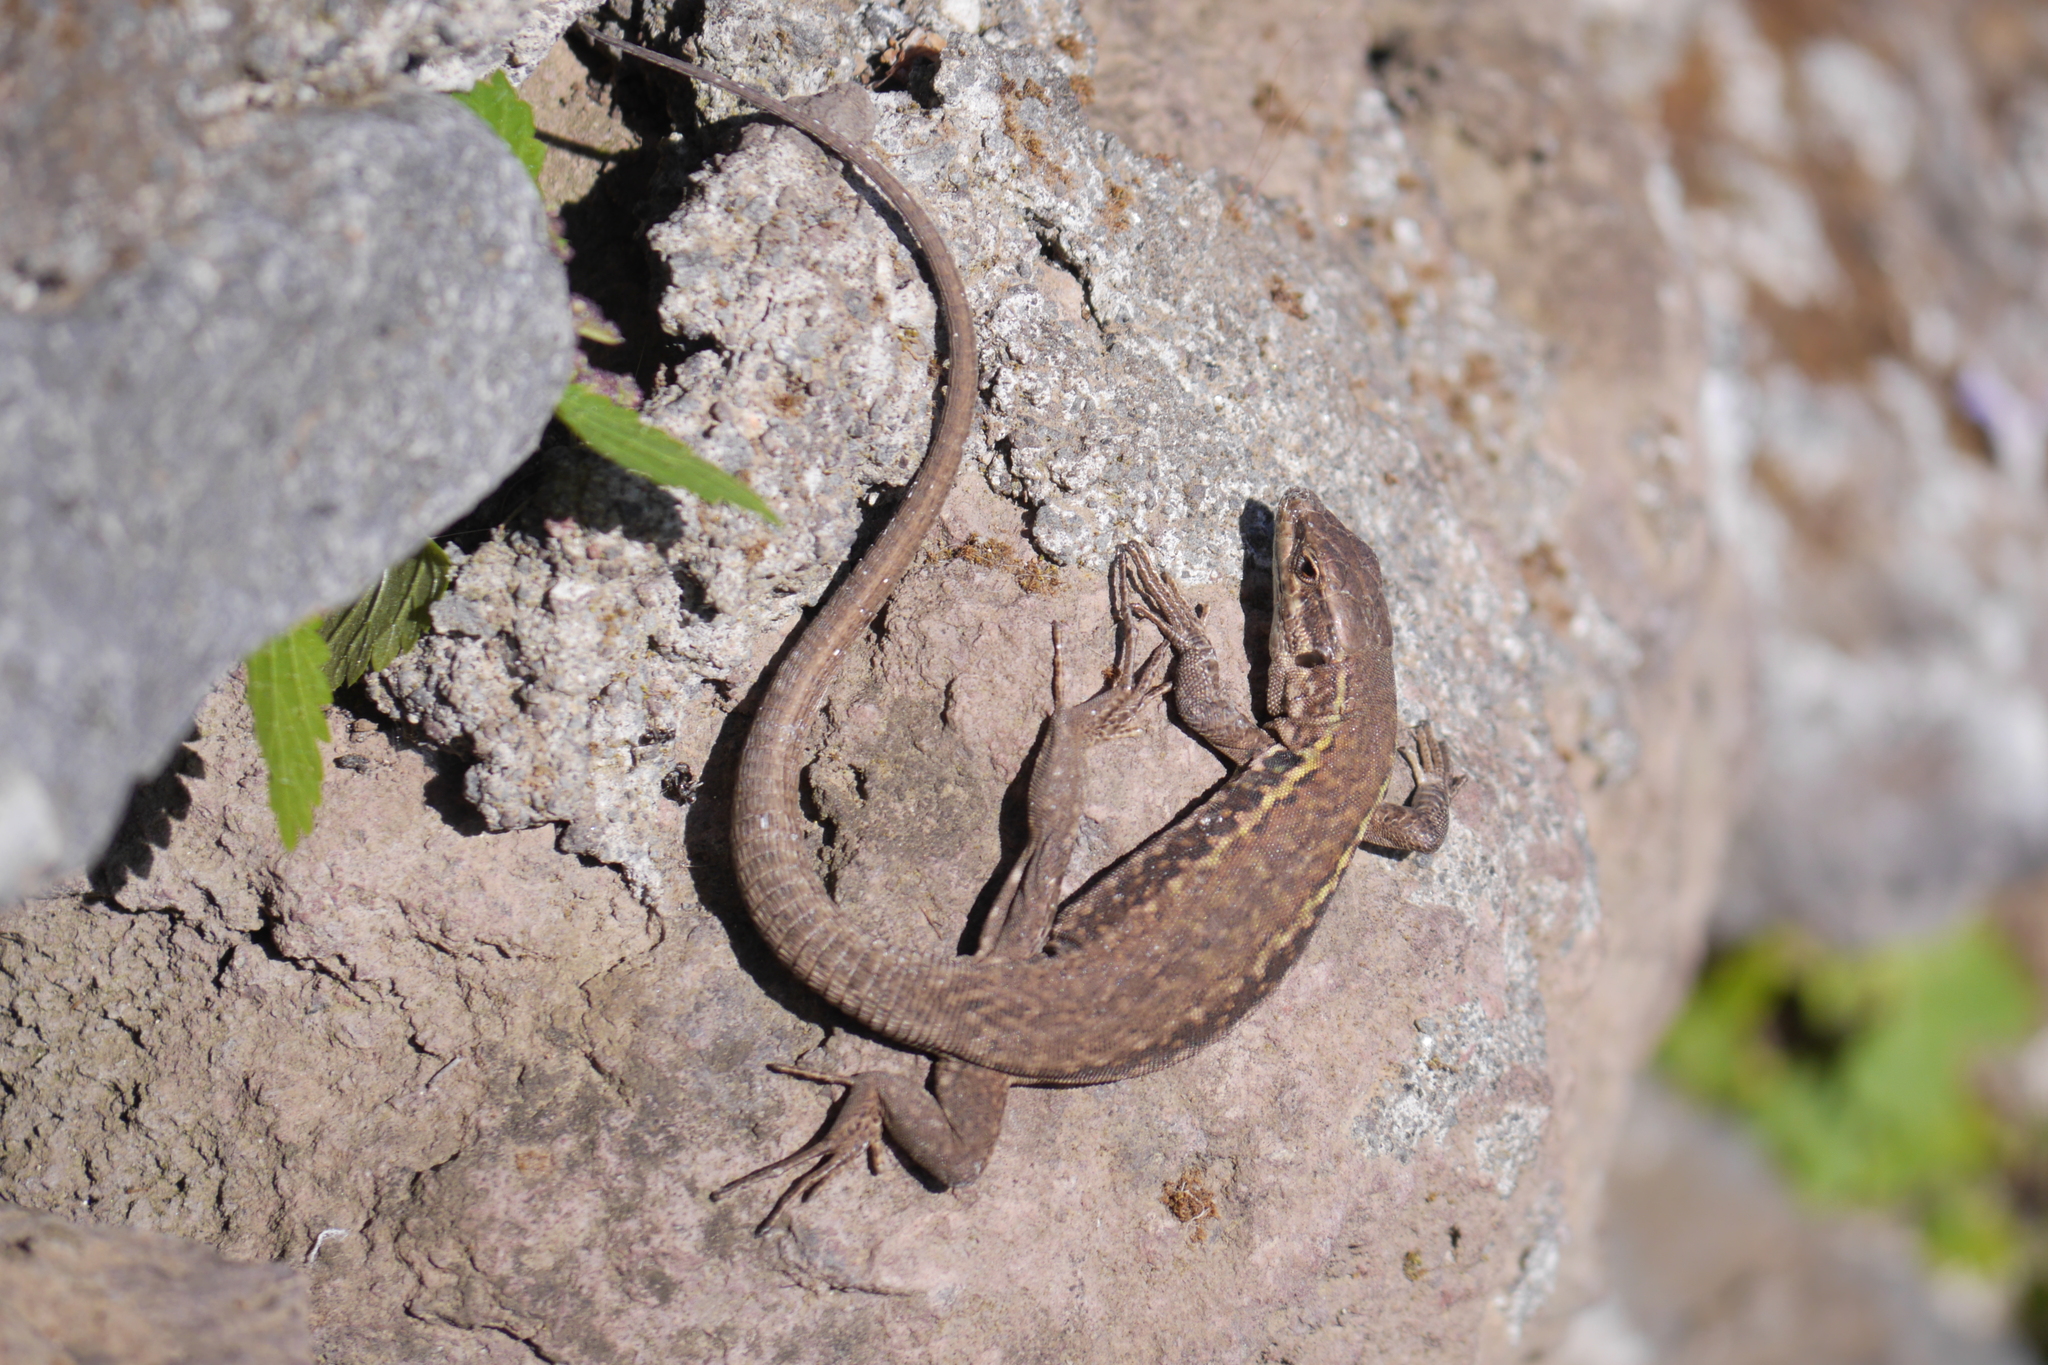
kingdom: Animalia
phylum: Chordata
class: Squamata
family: Lacertidae
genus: Podarcis
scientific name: Podarcis siculus
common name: Italian wall lizard
